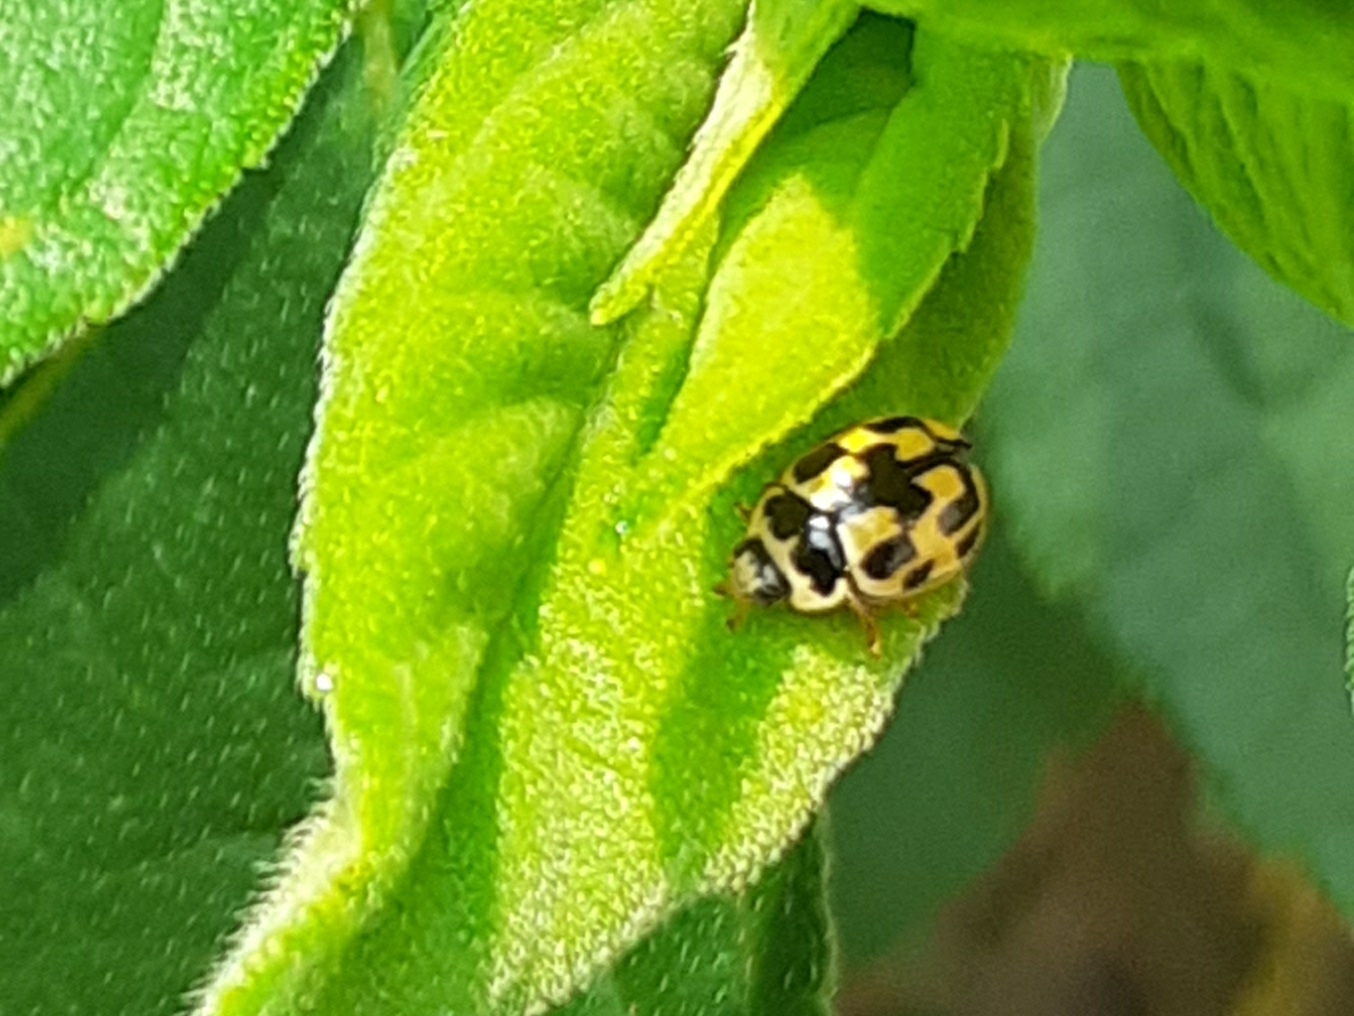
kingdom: Animalia
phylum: Arthropoda
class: Insecta
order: Coleoptera
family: Coccinellidae
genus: Propylaea
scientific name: Propylaea quatuordecimpunctata
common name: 14-spotted ladybird beetle
